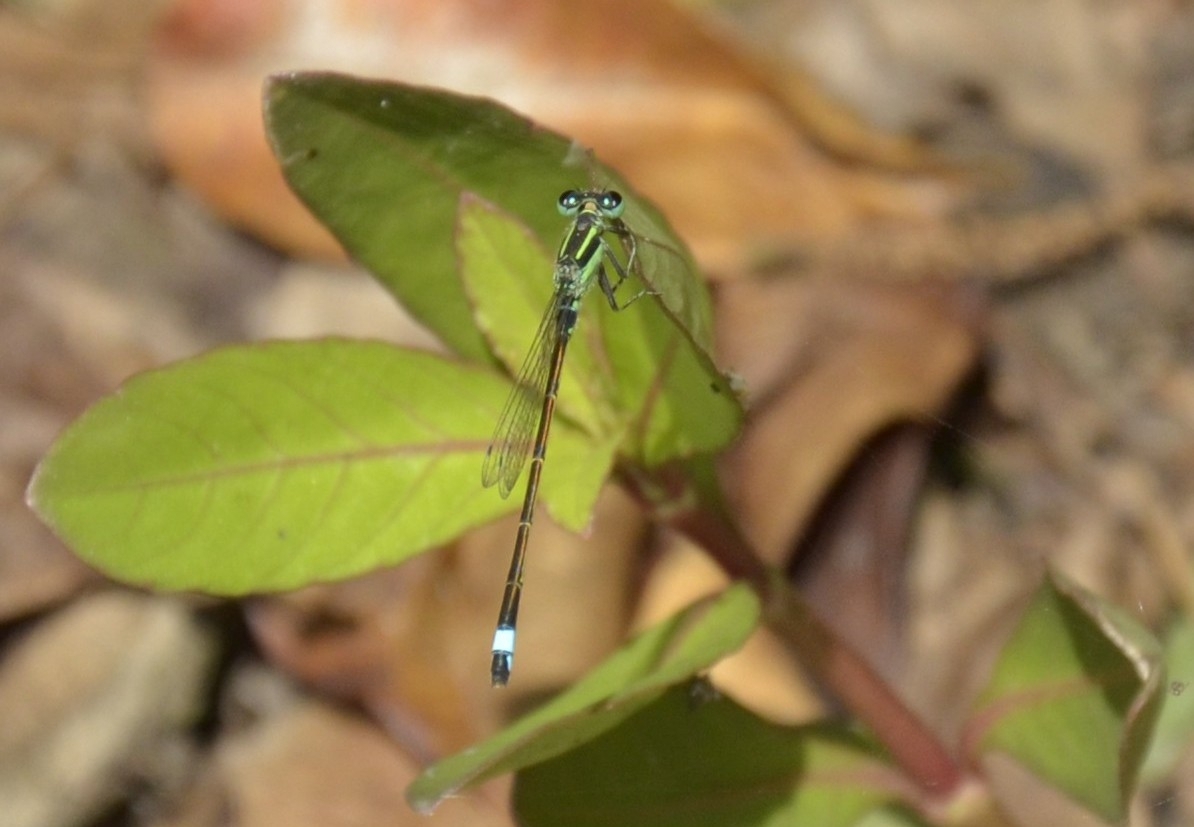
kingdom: Animalia
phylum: Arthropoda
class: Insecta
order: Odonata
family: Coenagrionidae
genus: Ischnura
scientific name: Ischnura senegalensis
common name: Tropical bluetail
